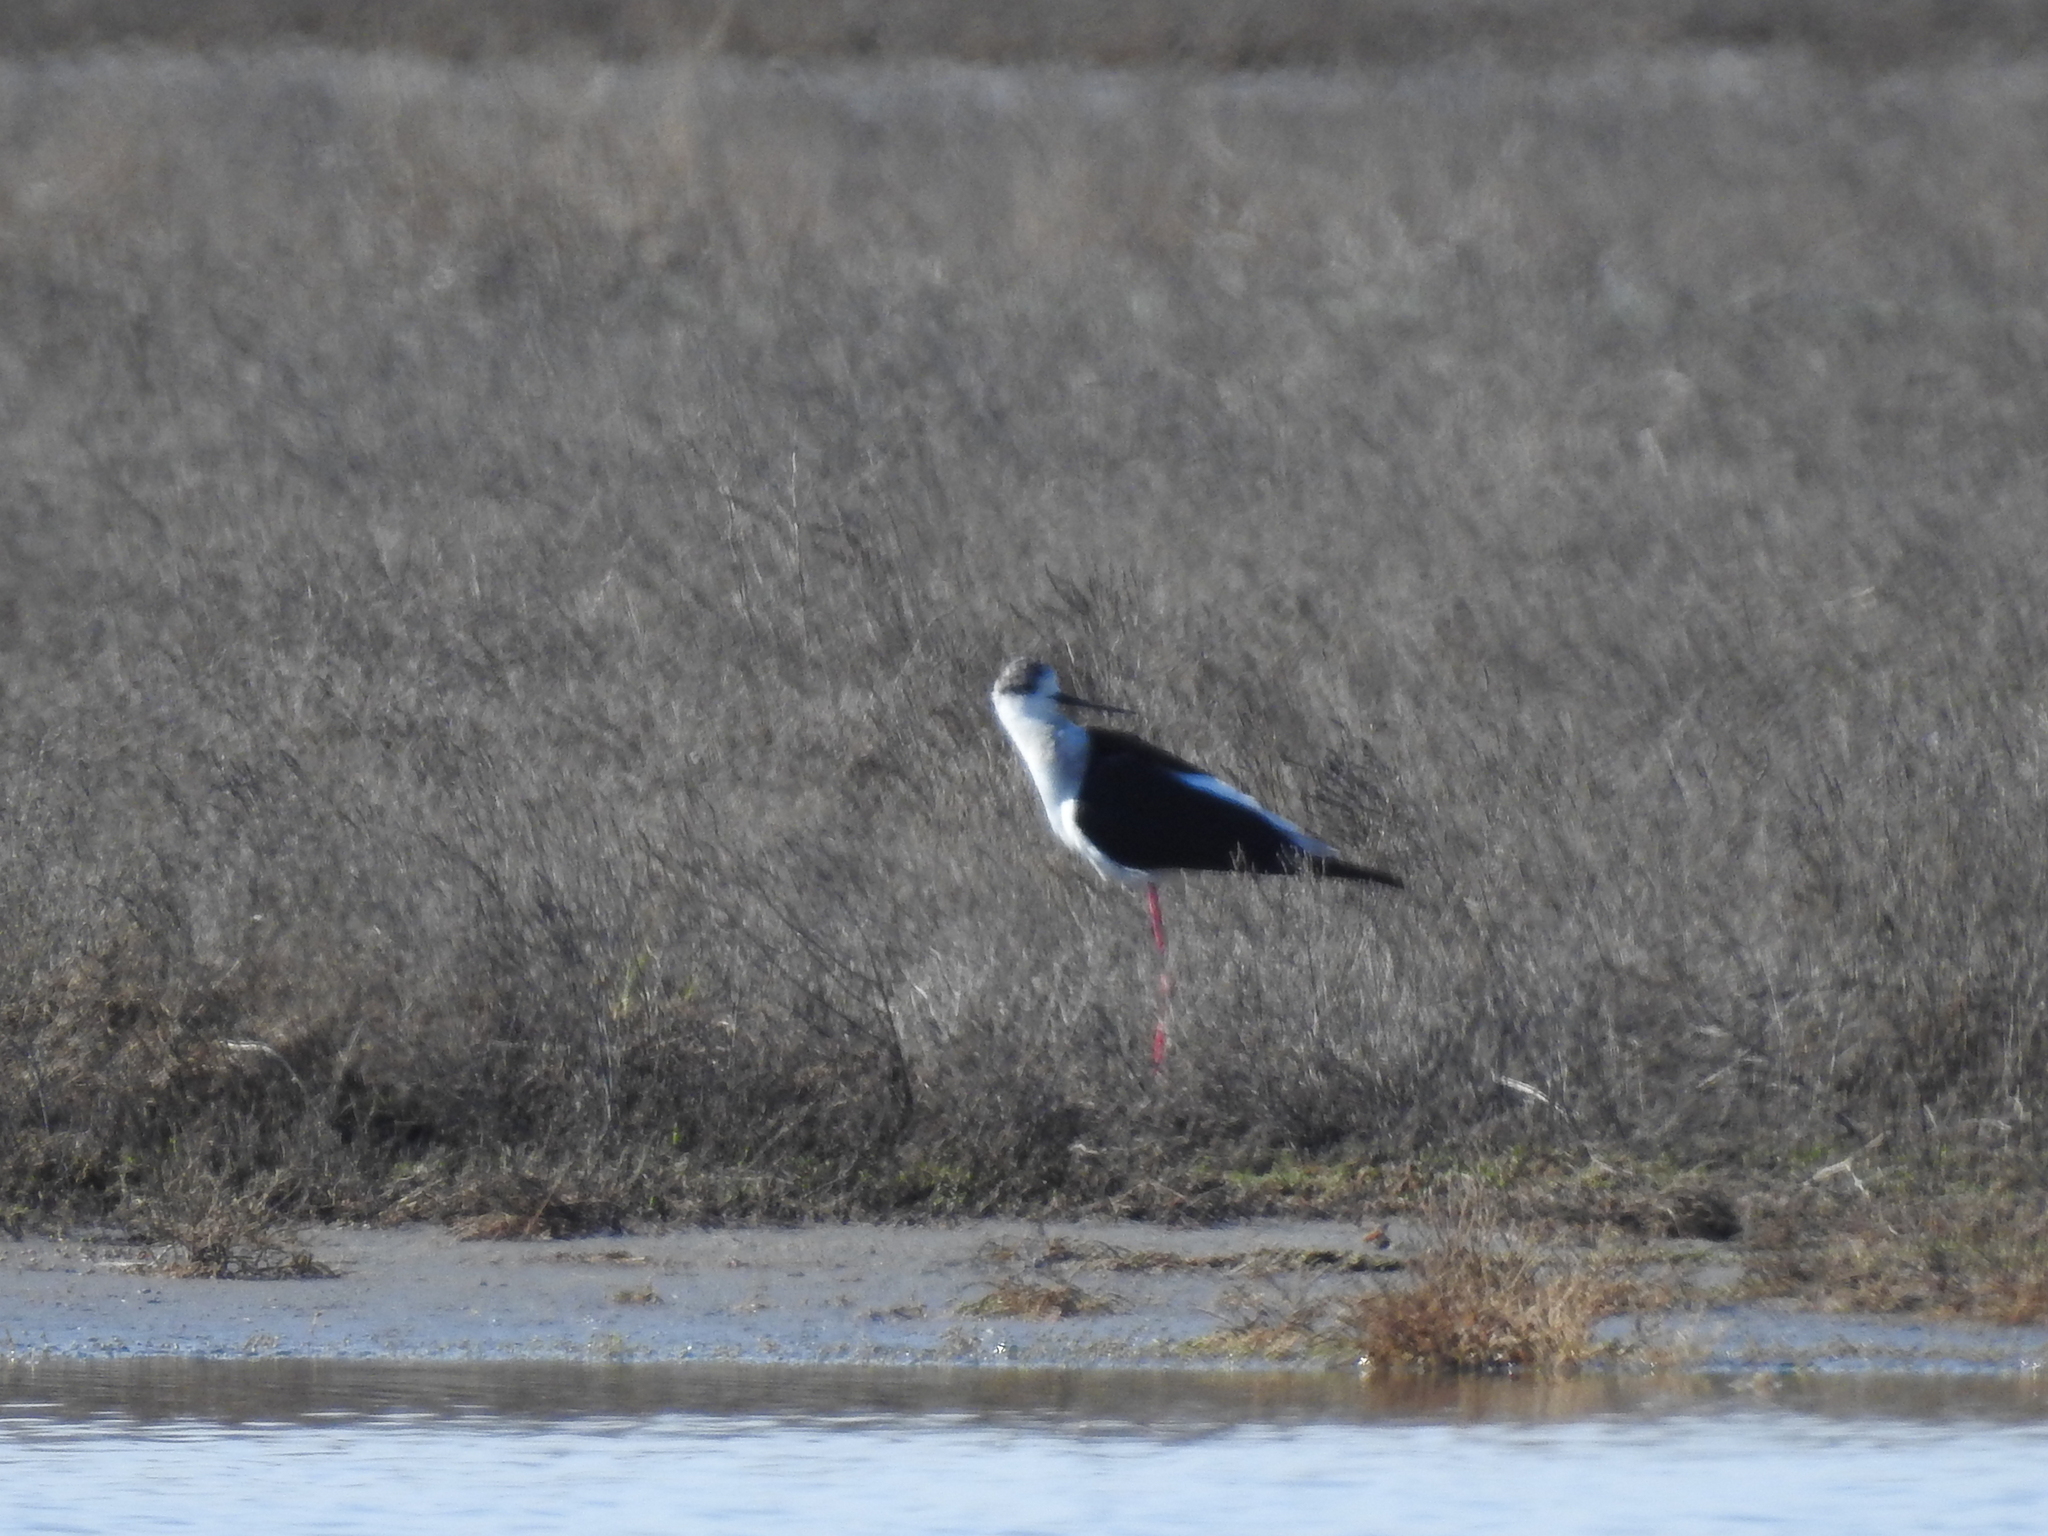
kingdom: Animalia
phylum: Chordata
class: Aves
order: Charadriiformes
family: Recurvirostridae
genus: Himantopus
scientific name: Himantopus himantopus
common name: Black-winged stilt
